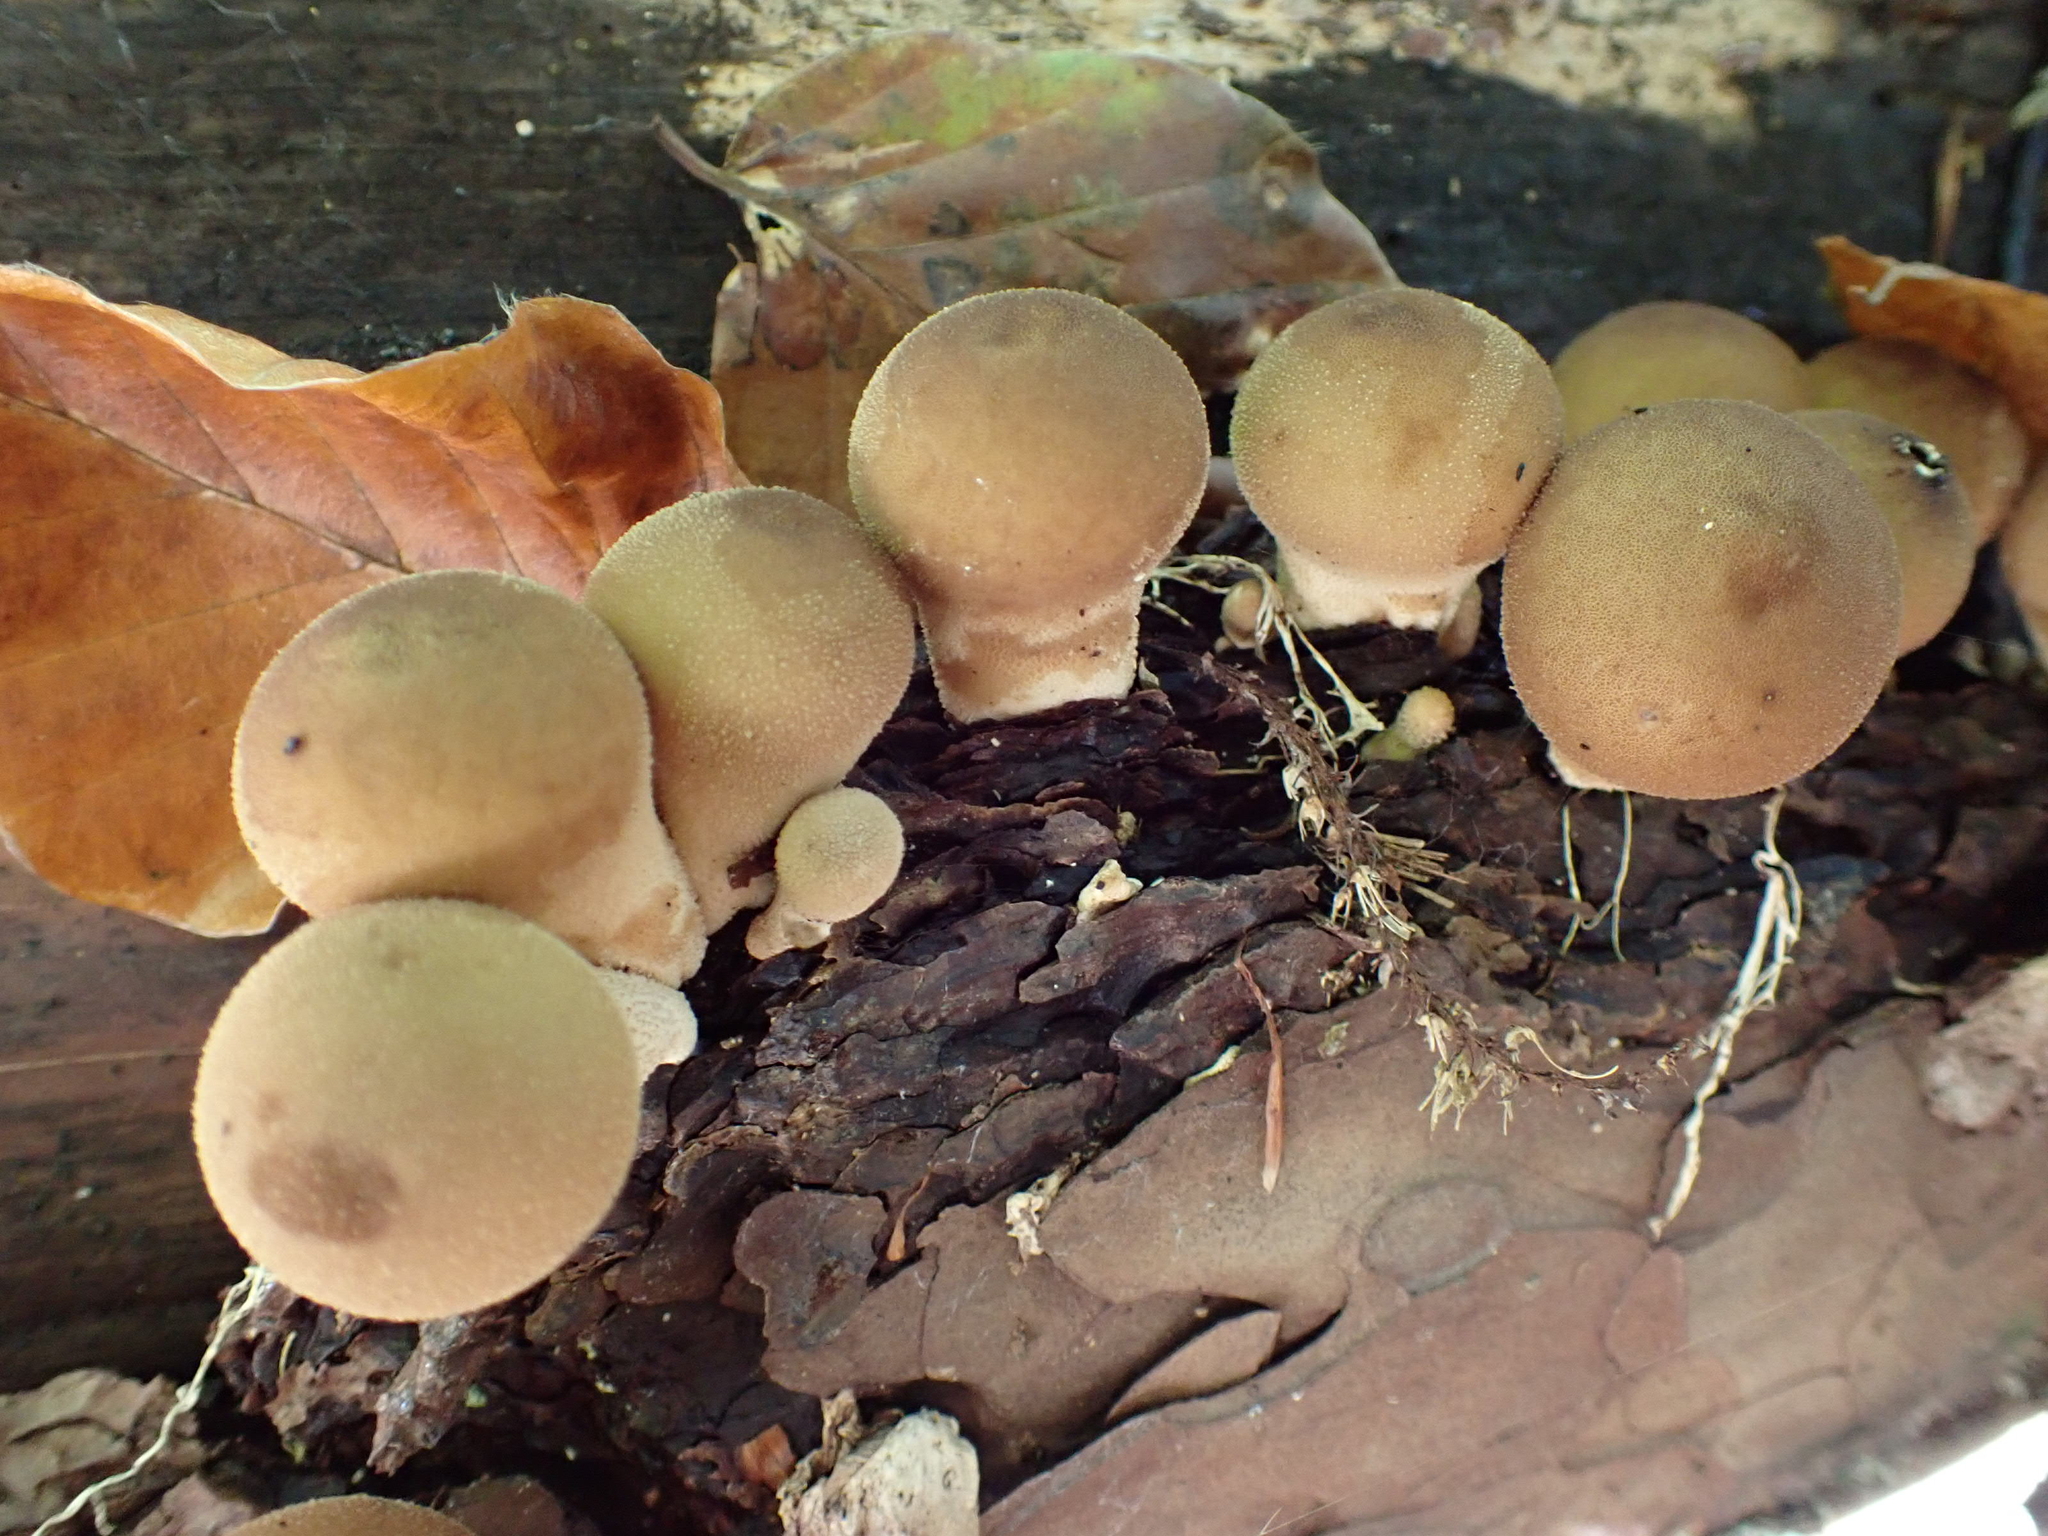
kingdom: Fungi
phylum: Basidiomycota
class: Agaricomycetes
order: Agaricales
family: Lycoperdaceae
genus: Apioperdon
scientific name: Apioperdon pyriforme
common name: Pear-shaped puffball
